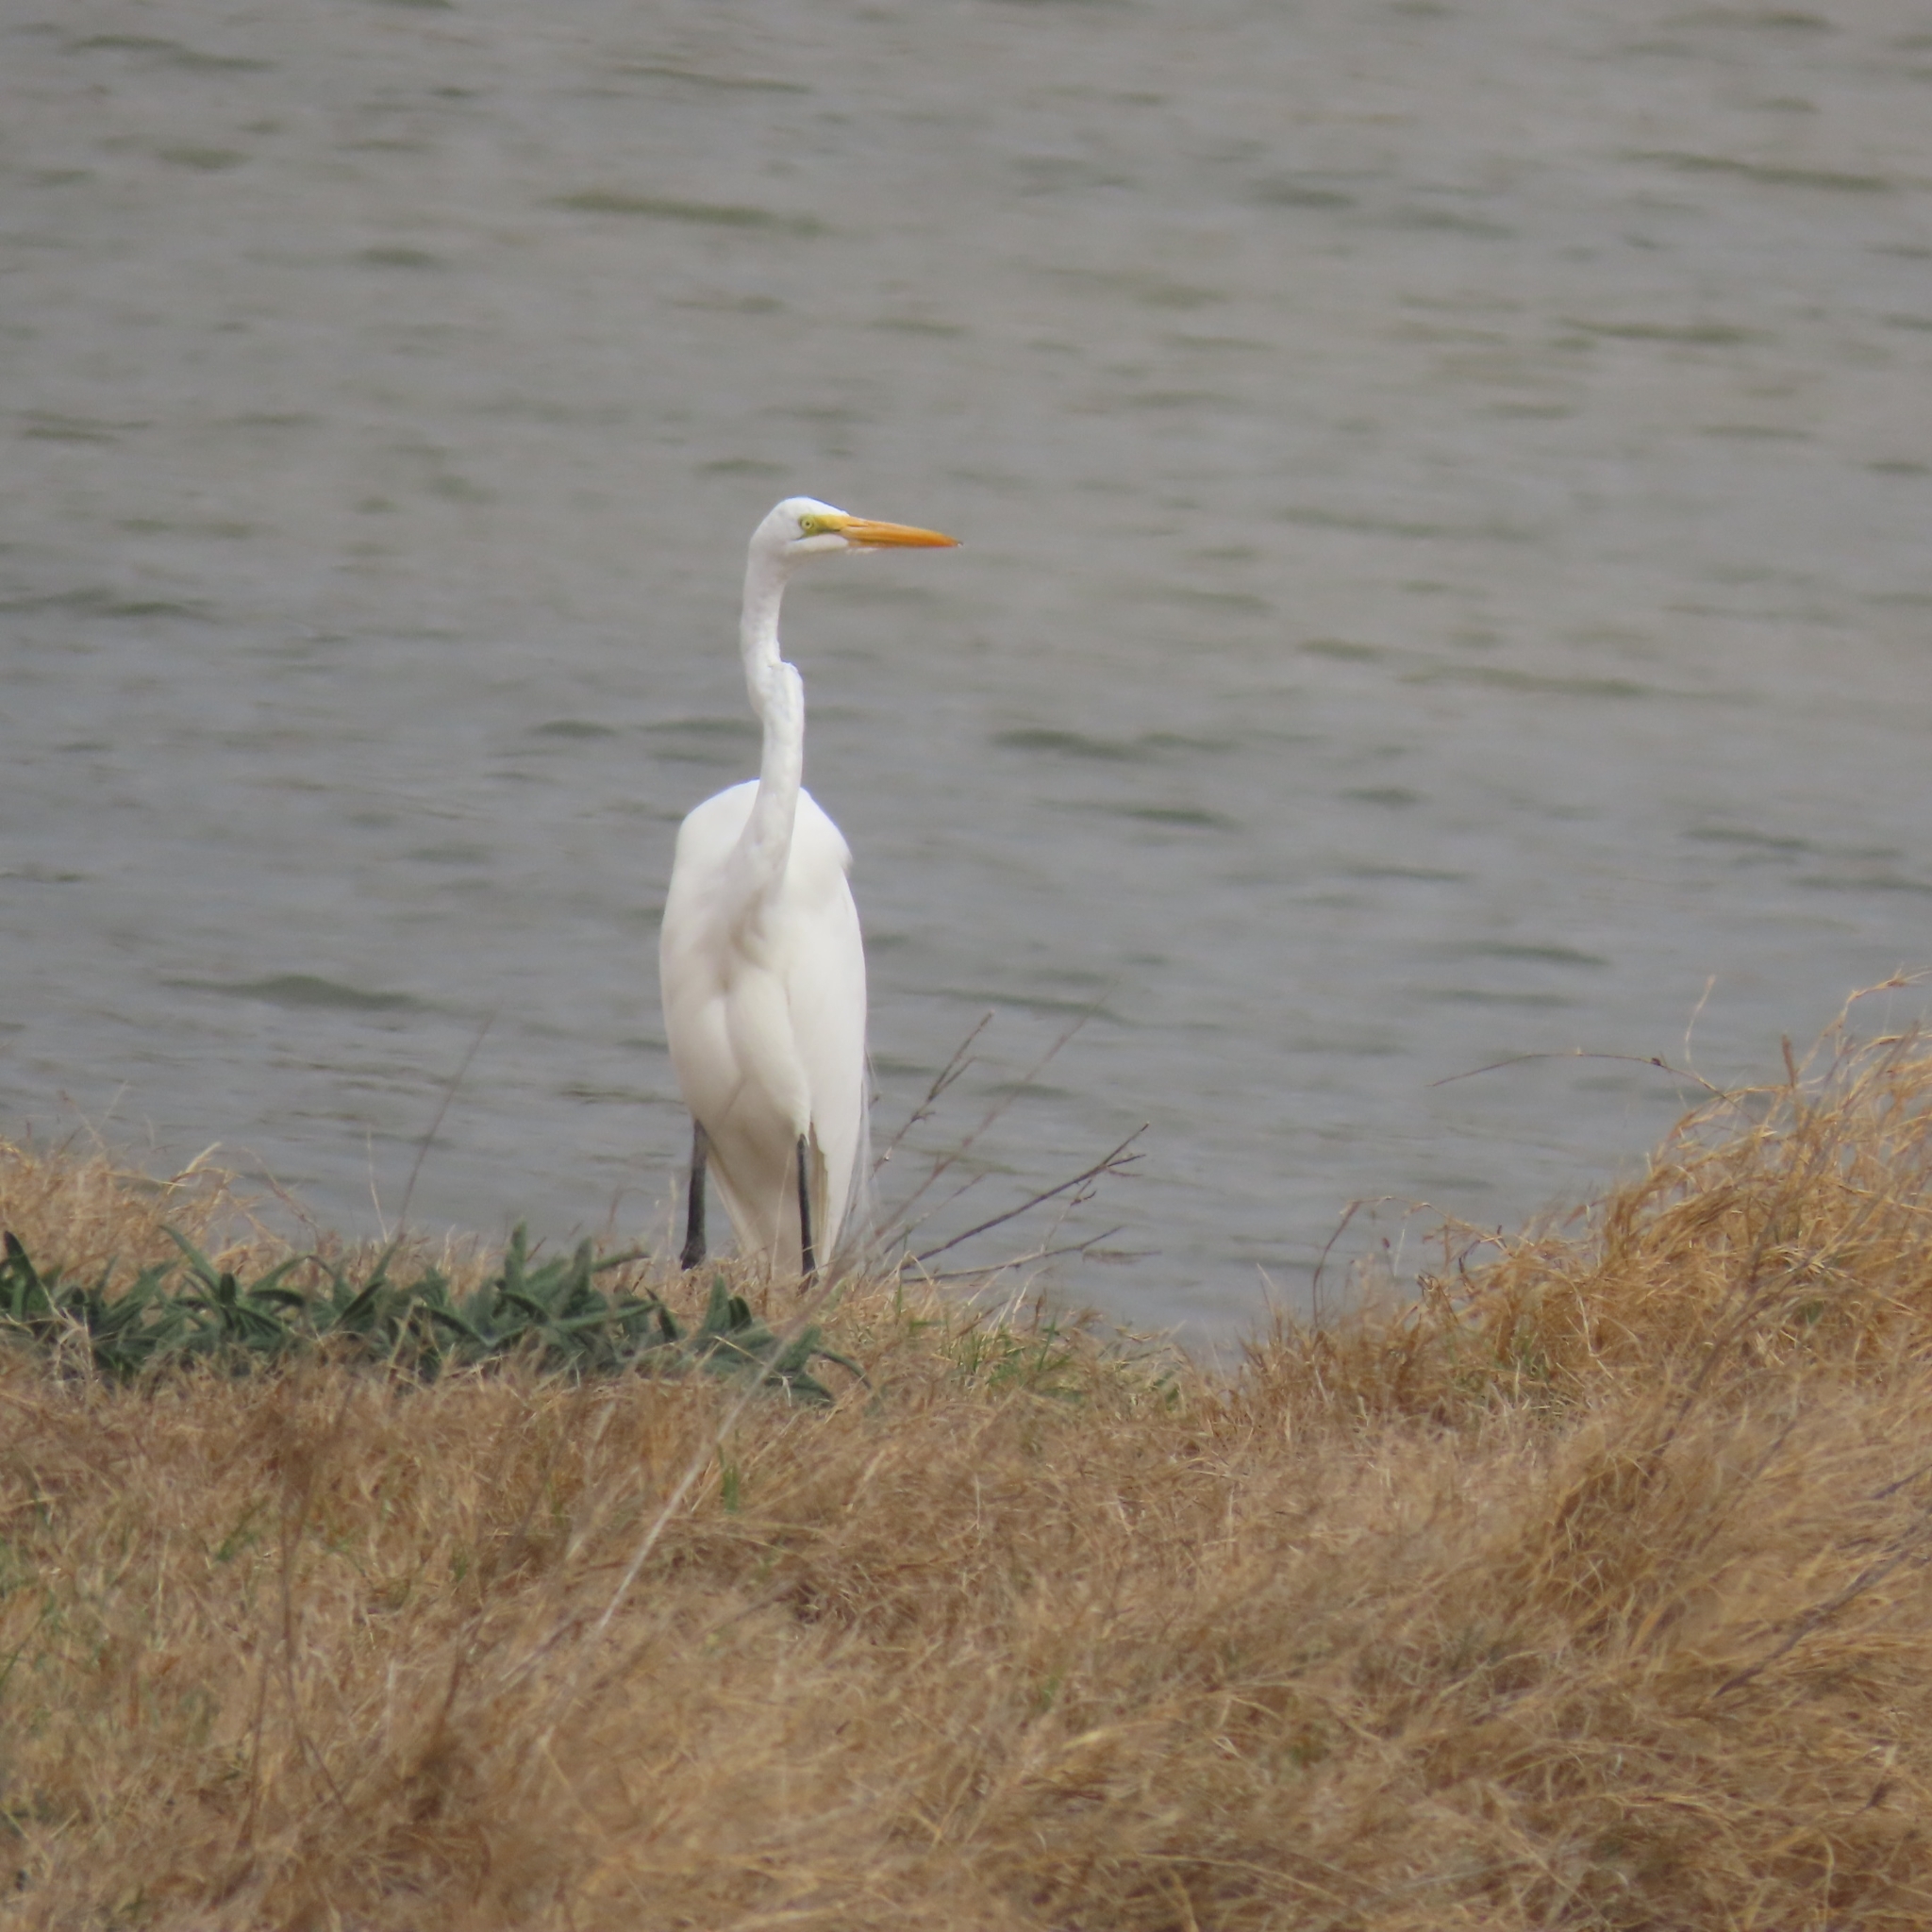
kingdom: Animalia
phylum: Chordata
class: Aves
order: Pelecaniformes
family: Ardeidae
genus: Ardea
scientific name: Ardea alba
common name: Great egret
